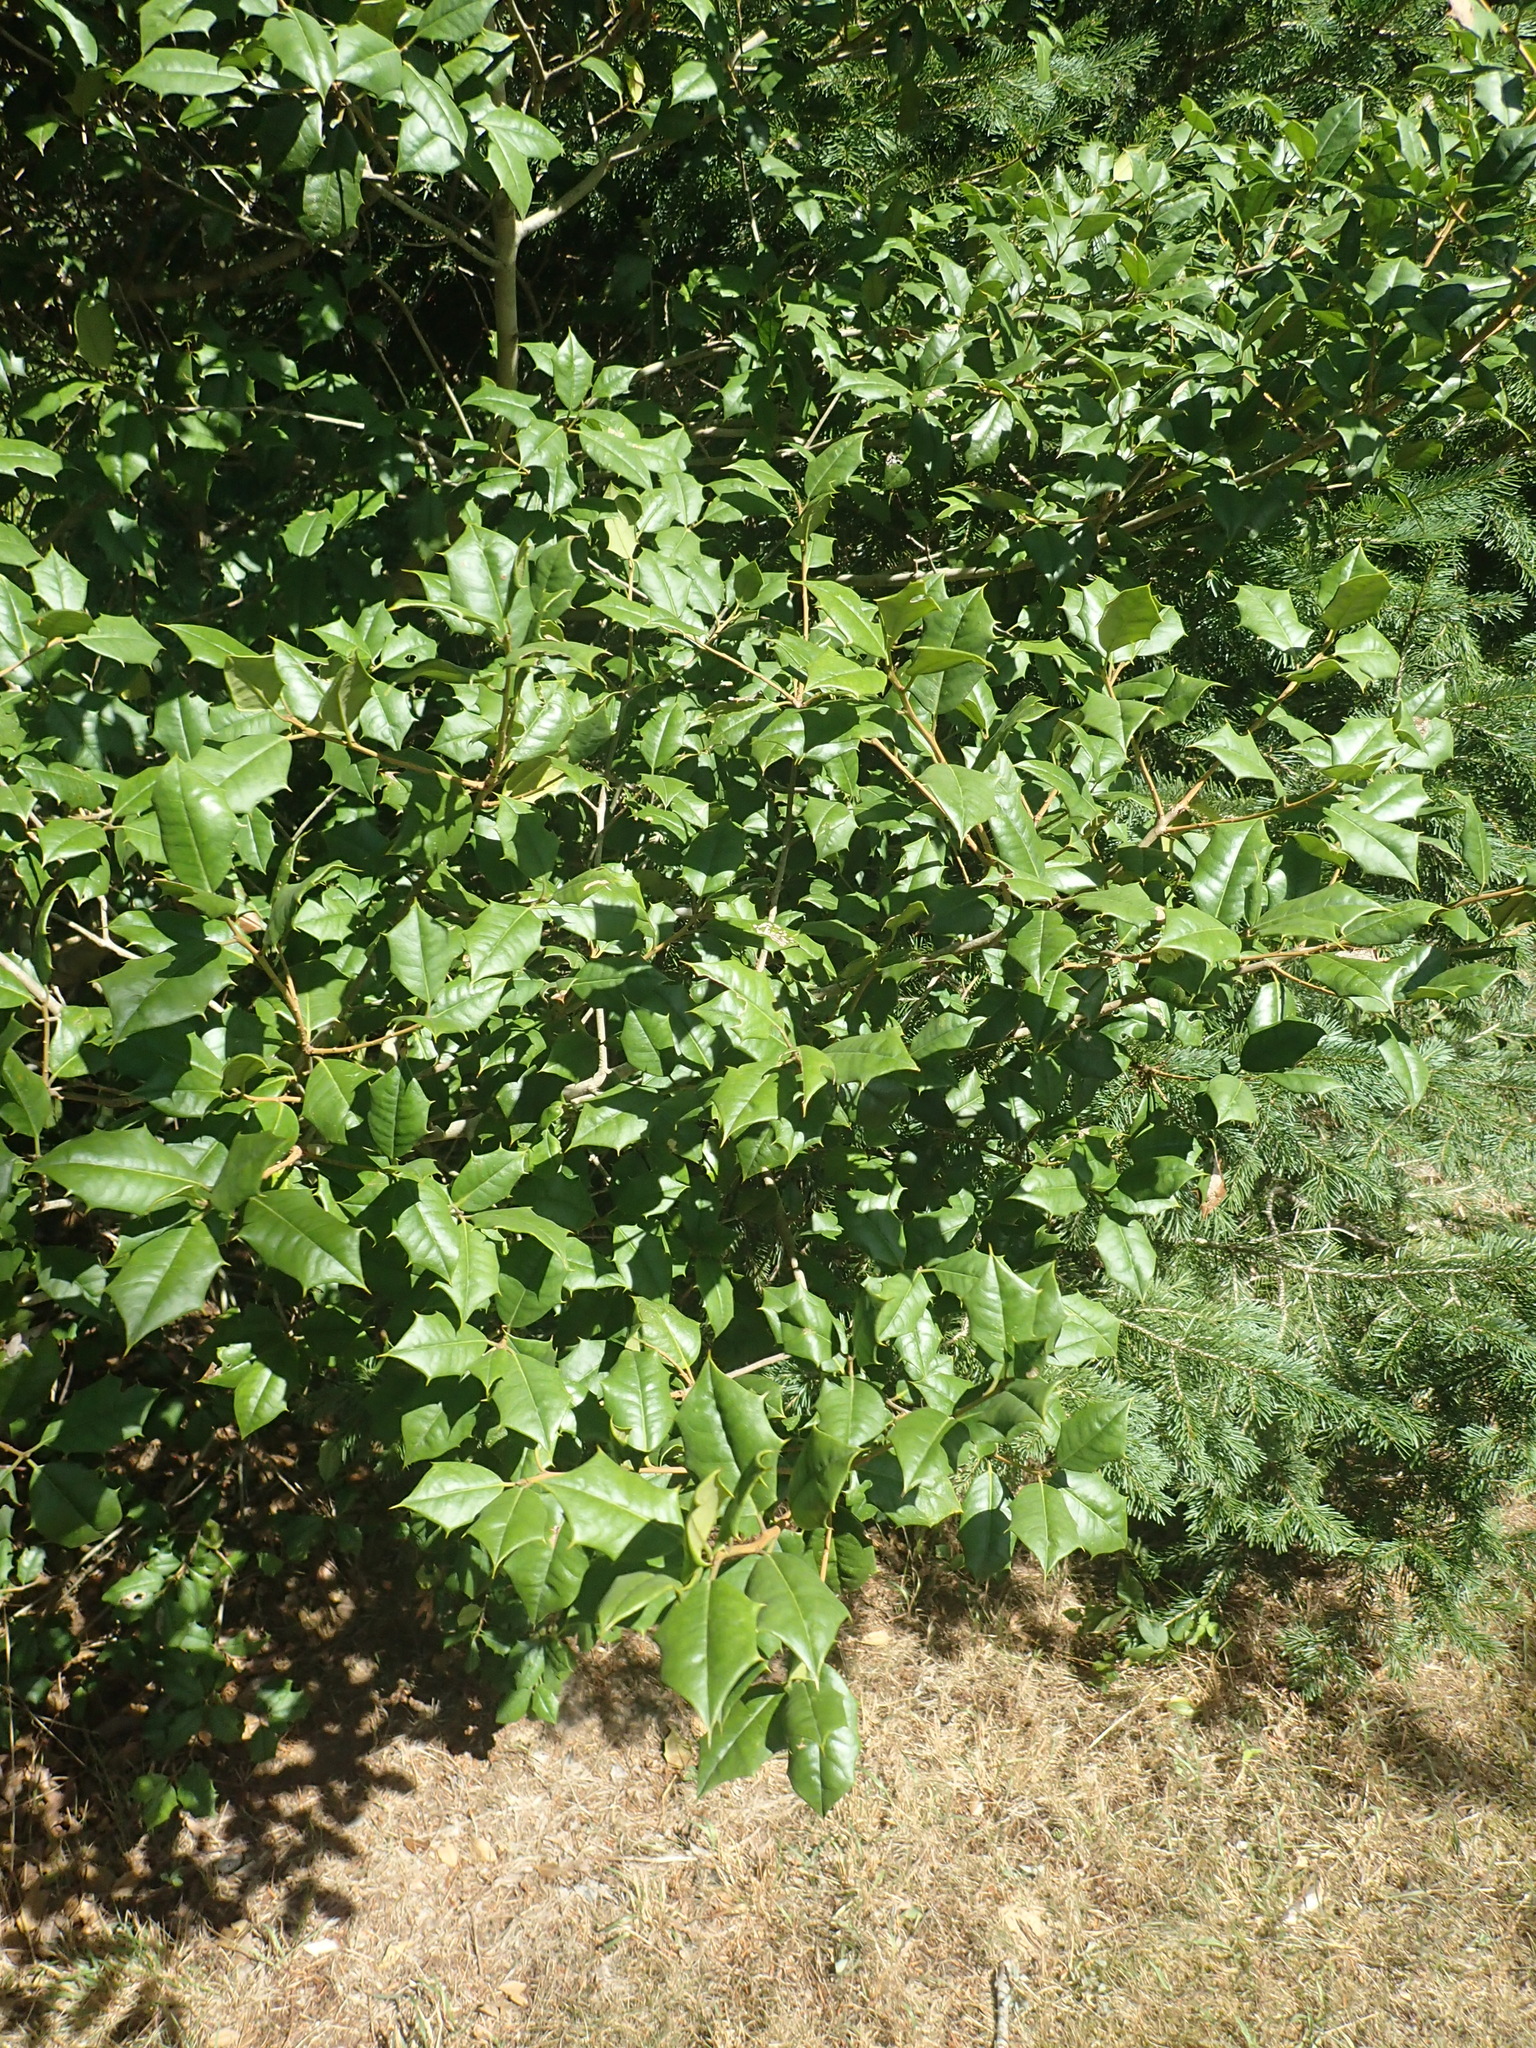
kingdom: Plantae
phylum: Tracheophyta
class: Magnoliopsida
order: Aquifoliales
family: Aquifoliaceae
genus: Ilex
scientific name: Ilex opaca
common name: American holly
